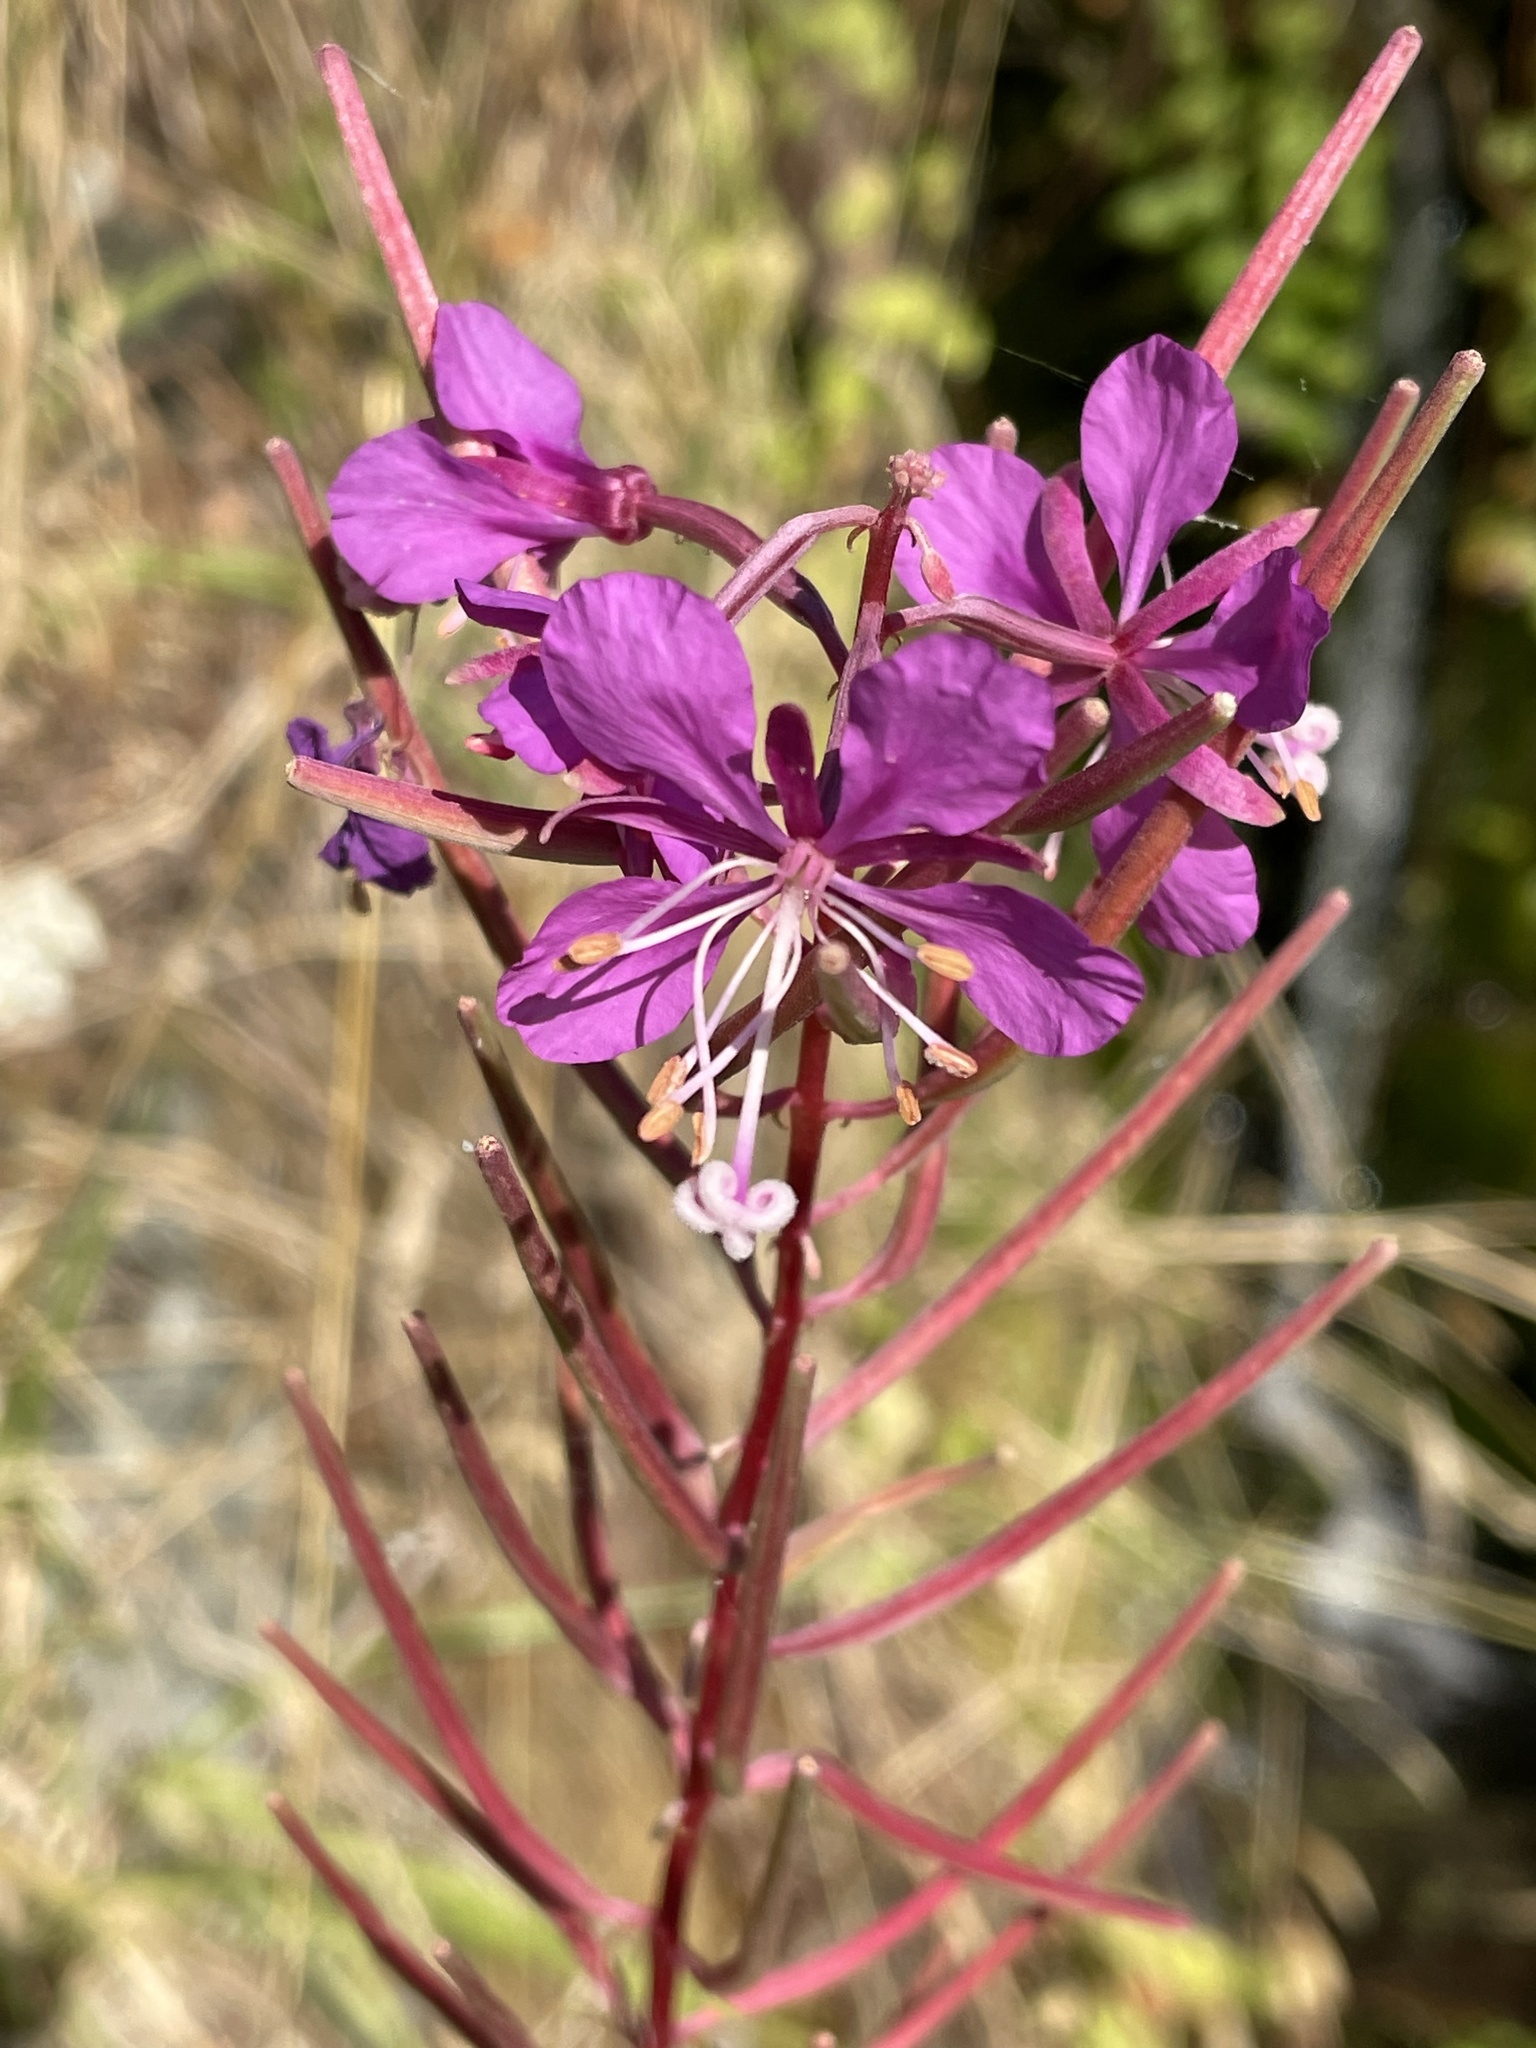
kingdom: Plantae
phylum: Tracheophyta
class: Magnoliopsida
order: Myrtales
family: Onagraceae
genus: Chamaenerion
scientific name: Chamaenerion angustifolium
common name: Fireweed
